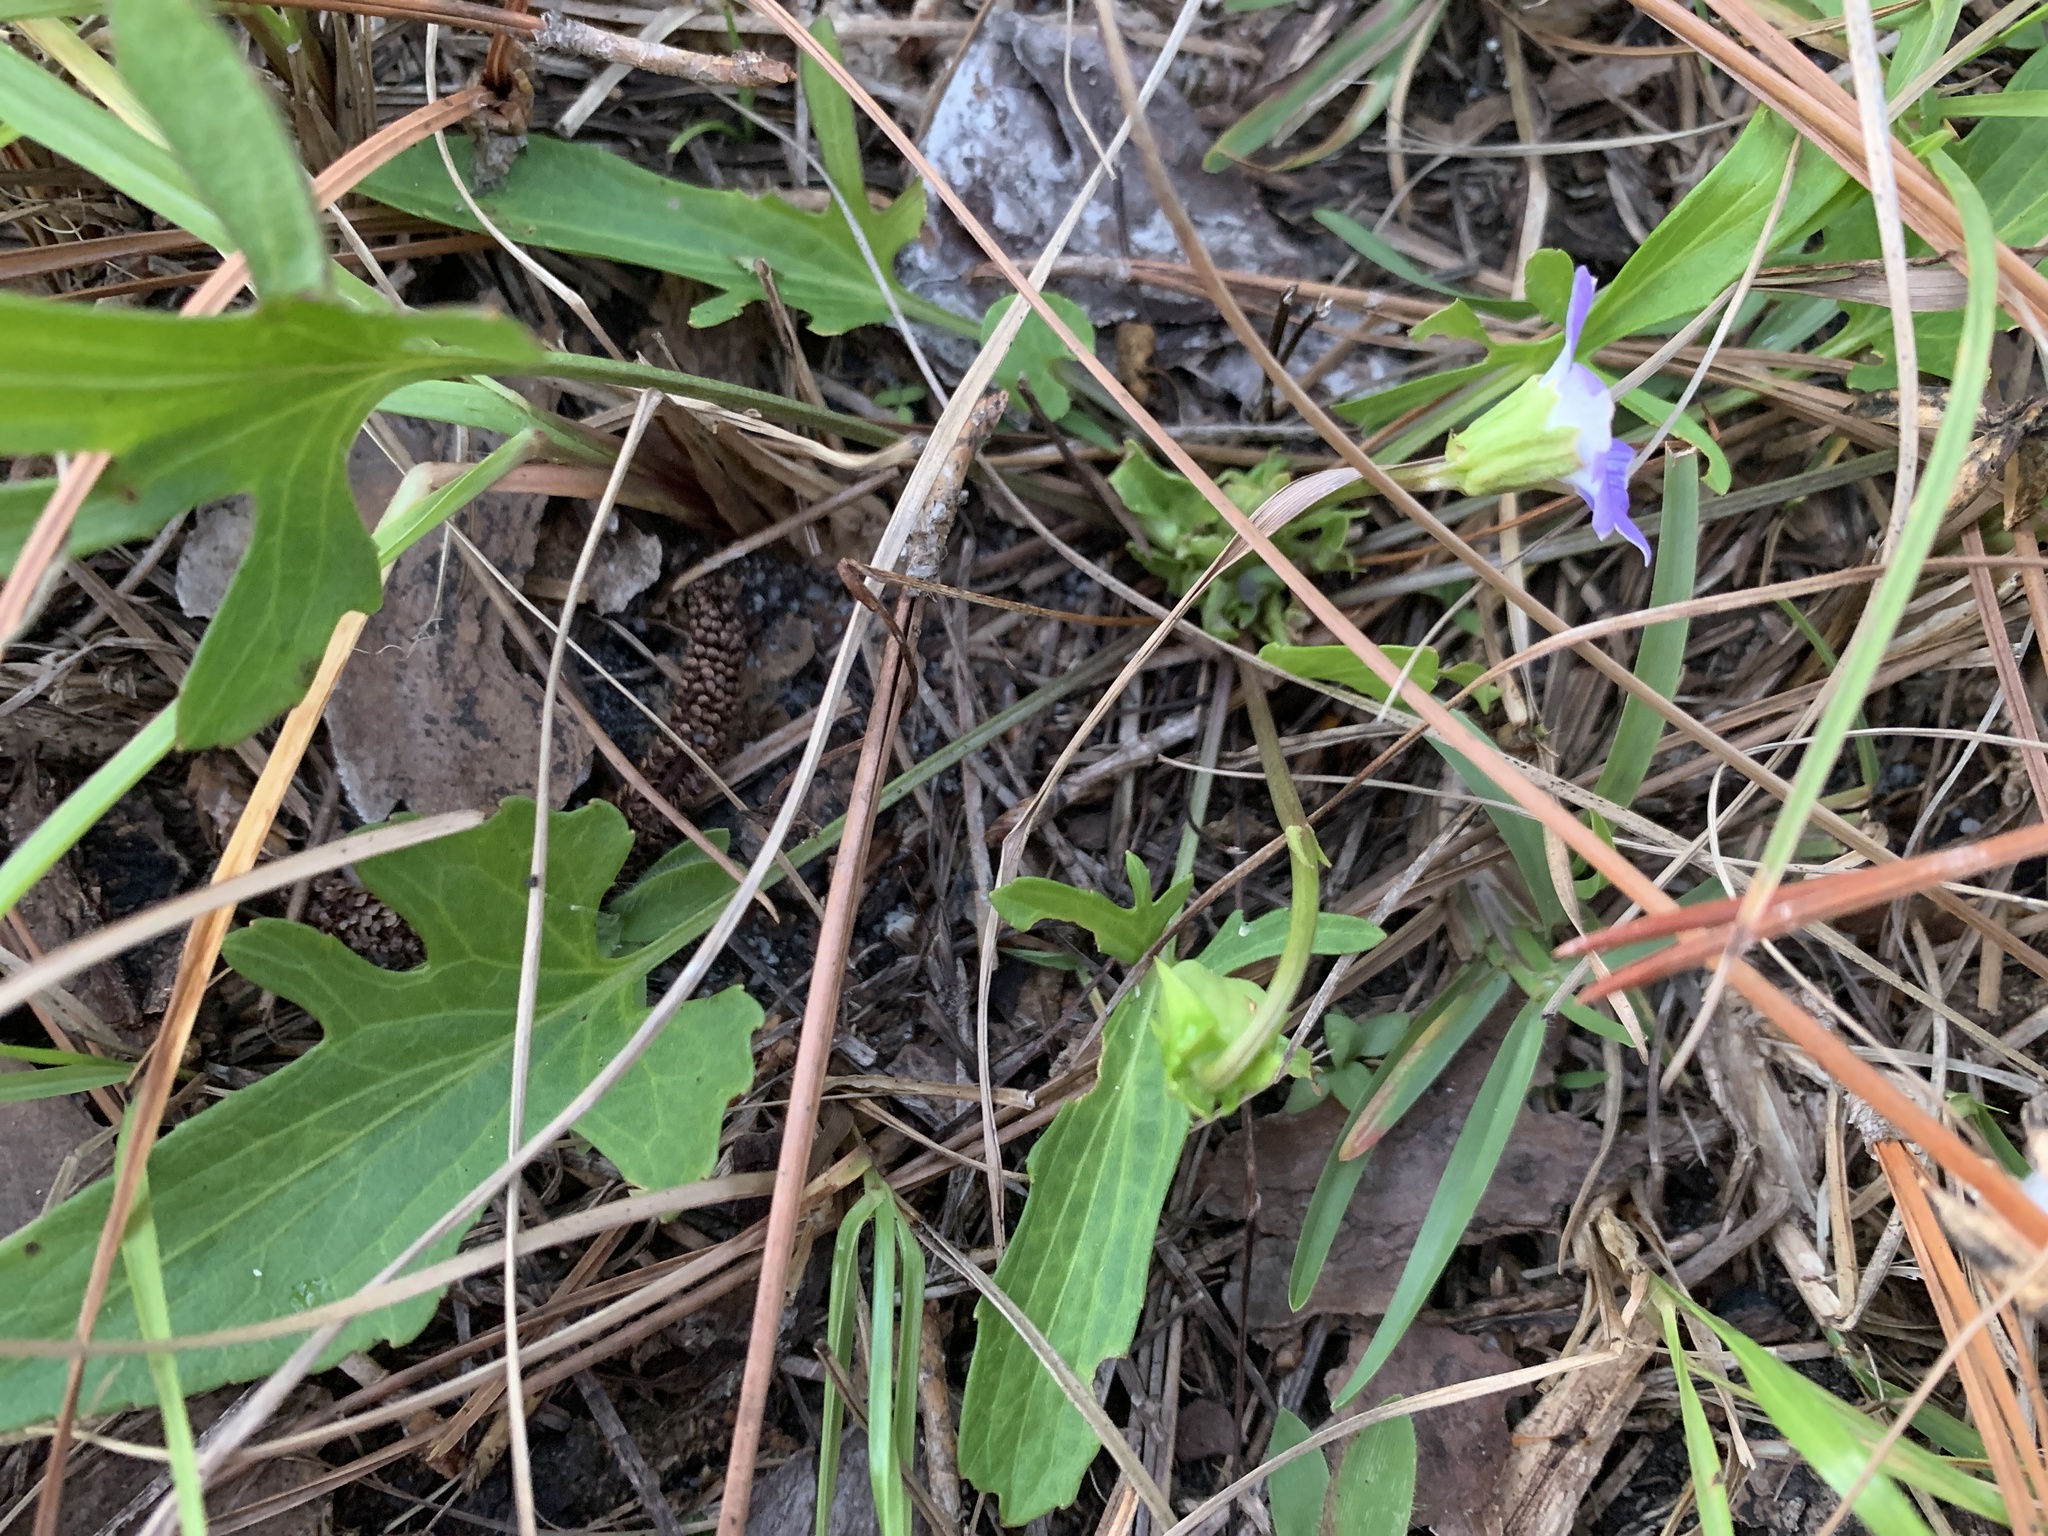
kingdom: Plantae
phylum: Tracheophyta
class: Magnoliopsida
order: Malpighiales
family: Violaceae
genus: Viola
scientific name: Viola septemloba
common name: Southern coast violet
